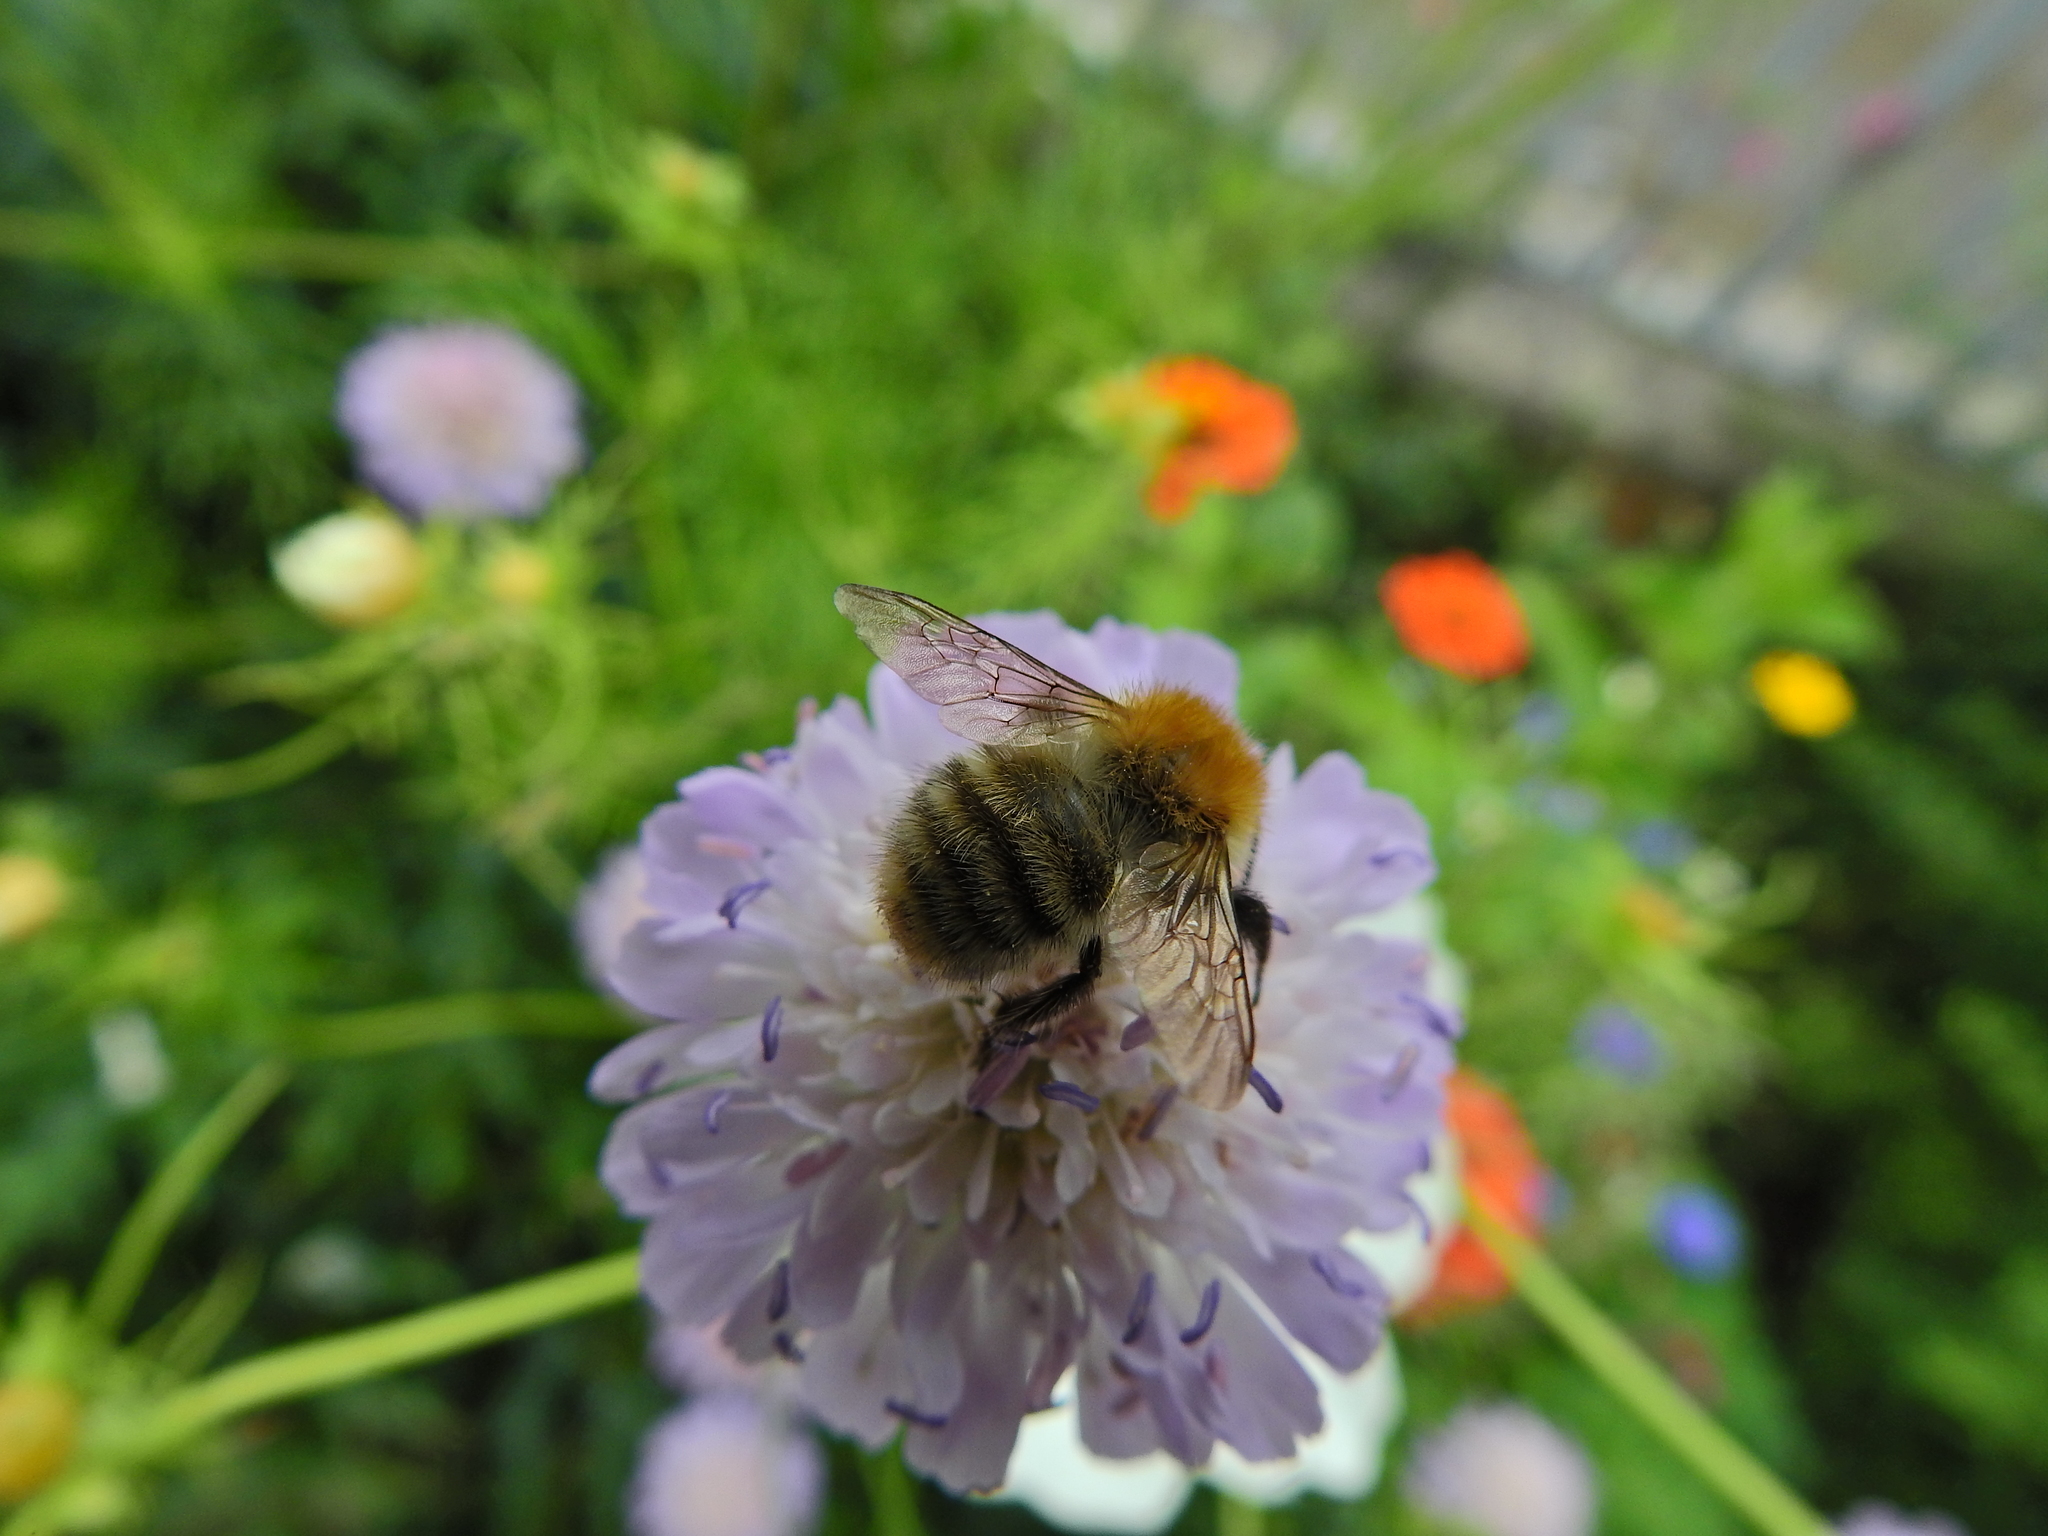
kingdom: Animalia
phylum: Arthropoda
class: Insecta
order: Hymenoptera
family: Apidae
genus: Bombus
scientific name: Bombus pascuorum
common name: Common carder bee
